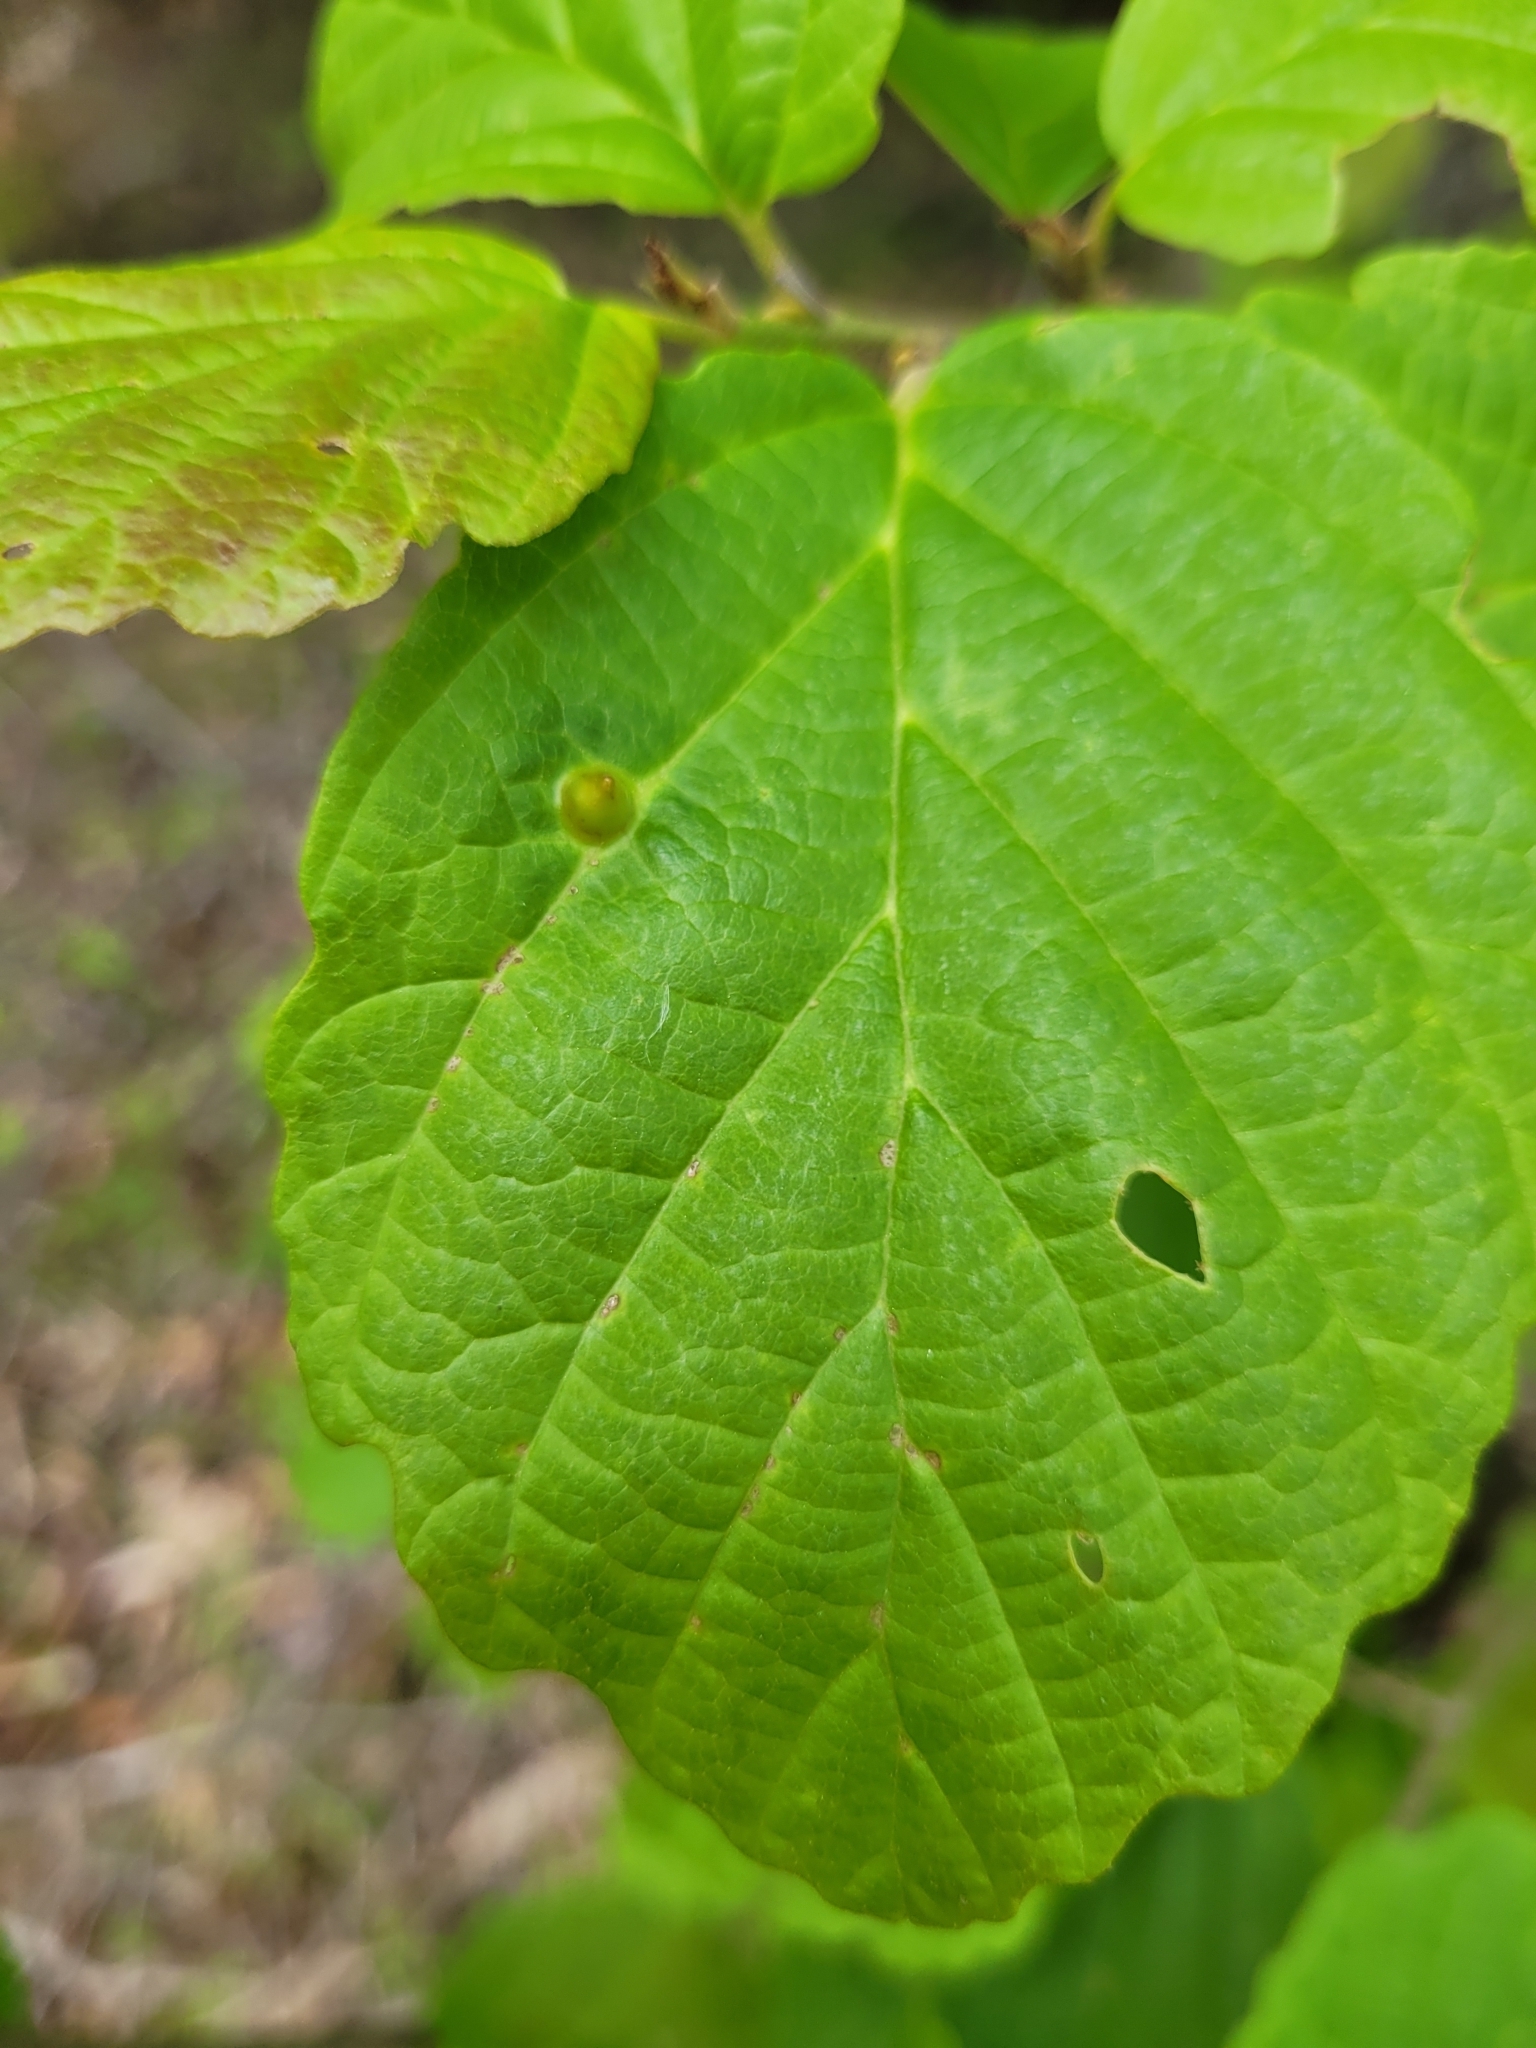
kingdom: Animalia
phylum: Arthropoda
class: Insecta
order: Hemiptera
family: Aphididae
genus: Hormaphis
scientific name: Hormaphis hamamelidis
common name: Witch-hazel cone gall aphid
